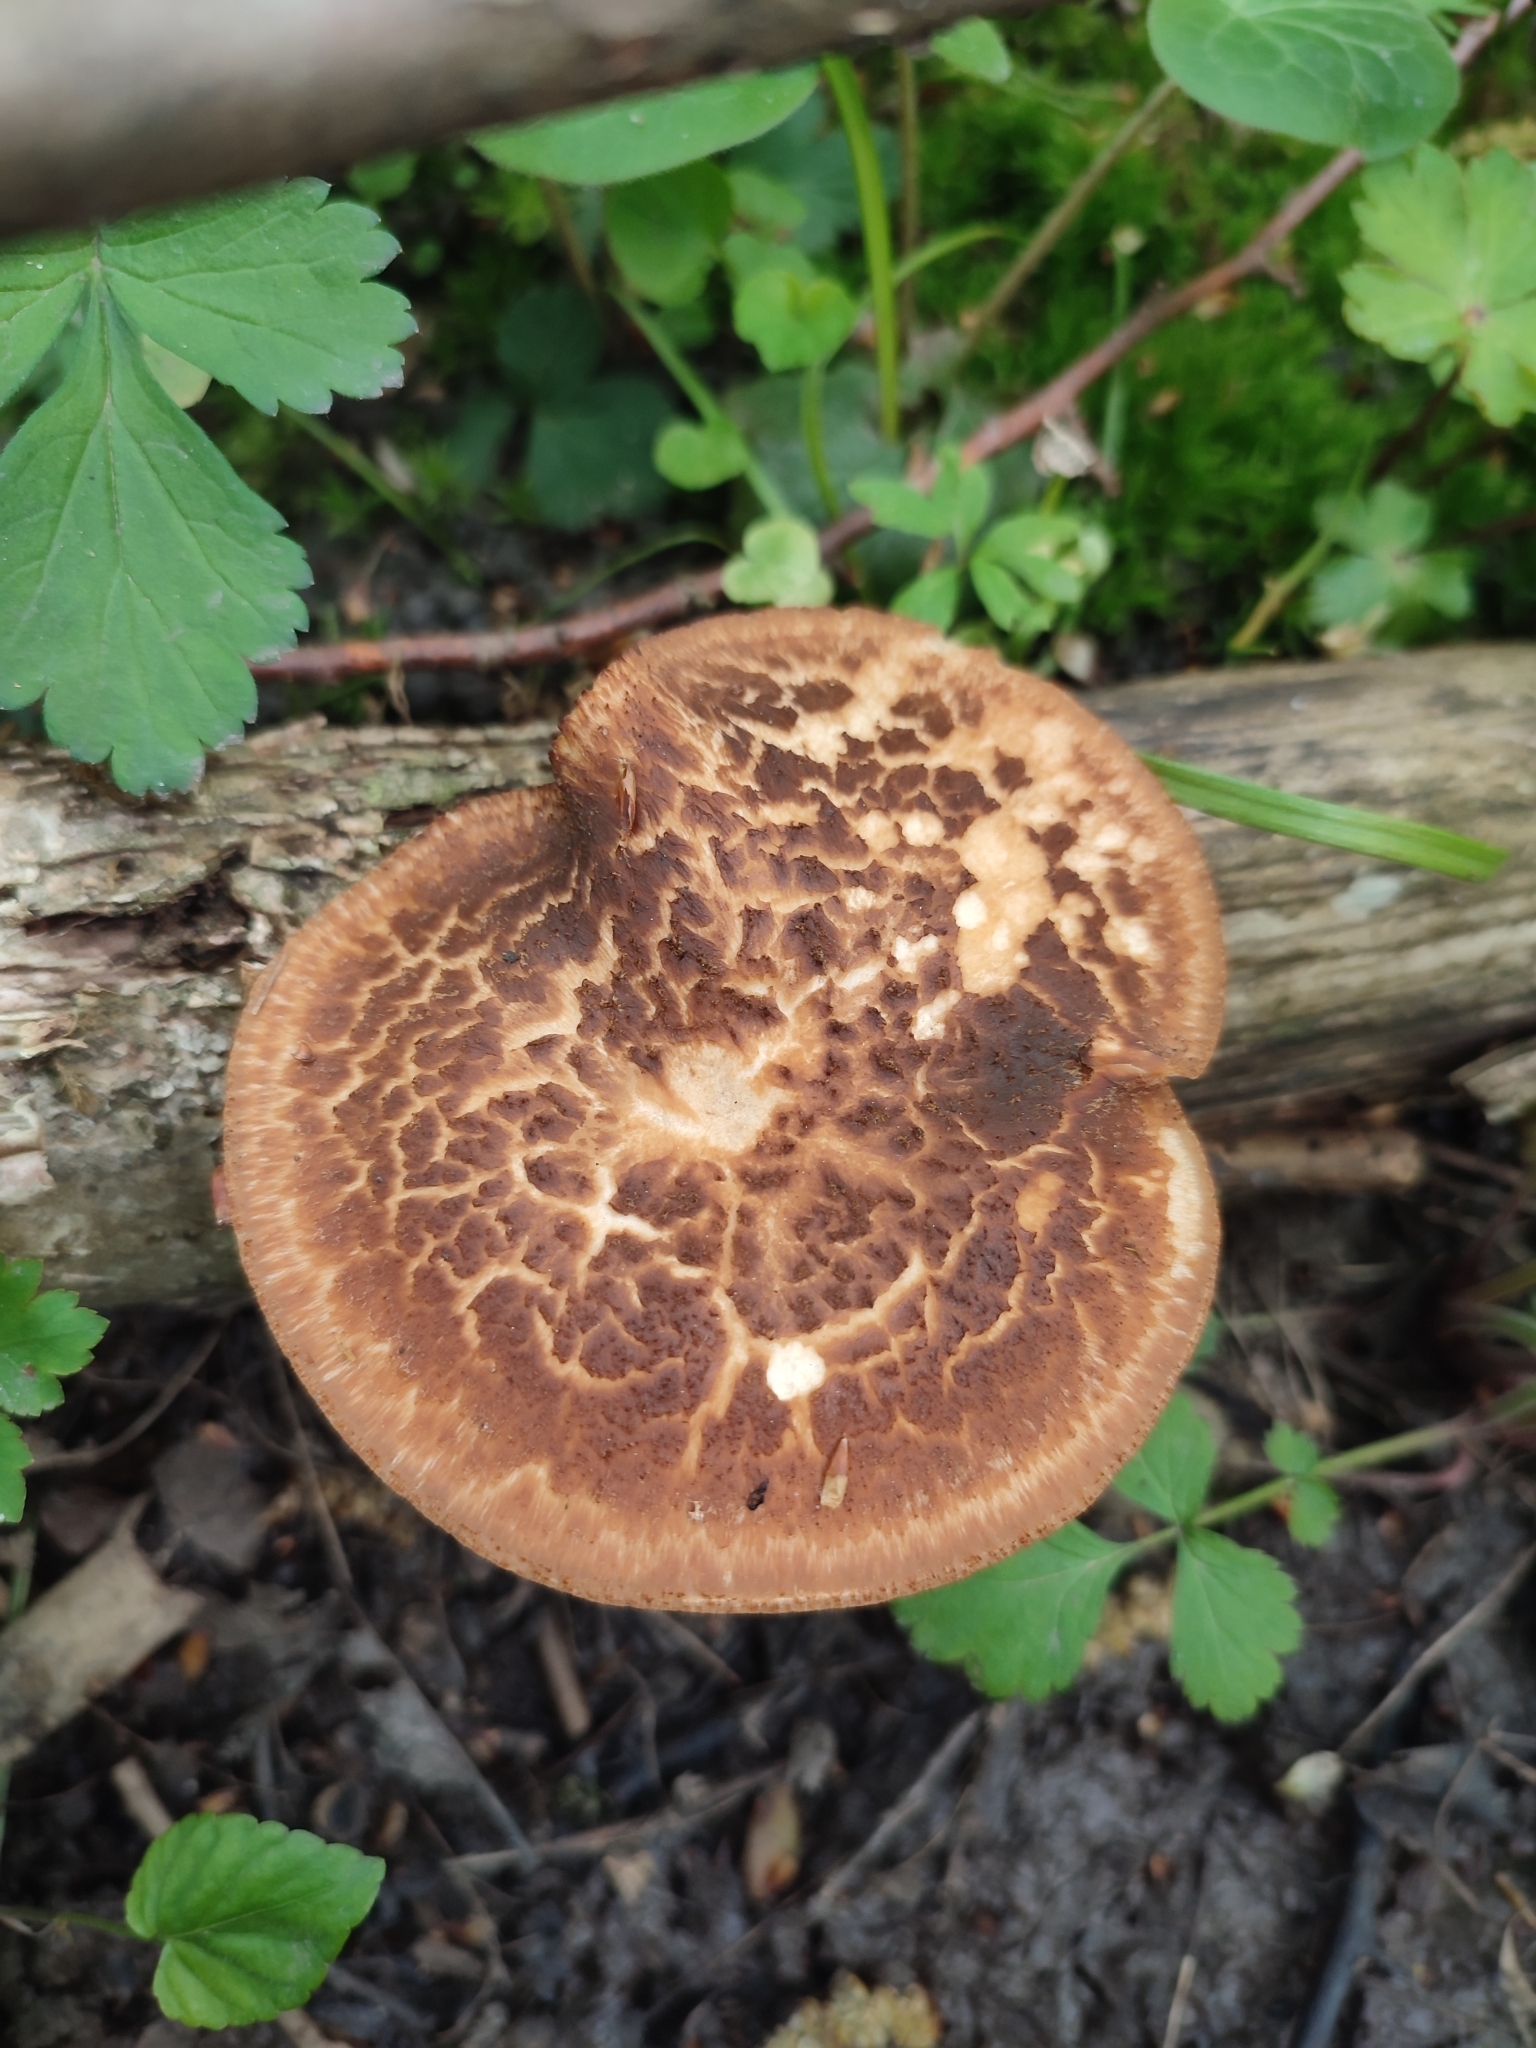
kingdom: Fungi
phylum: Basidiomycota
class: Agaricomycetes
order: Polyporales
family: Polyporaceae
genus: Polyporus
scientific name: Polyporus tuberaster
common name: Tuberous polypore
